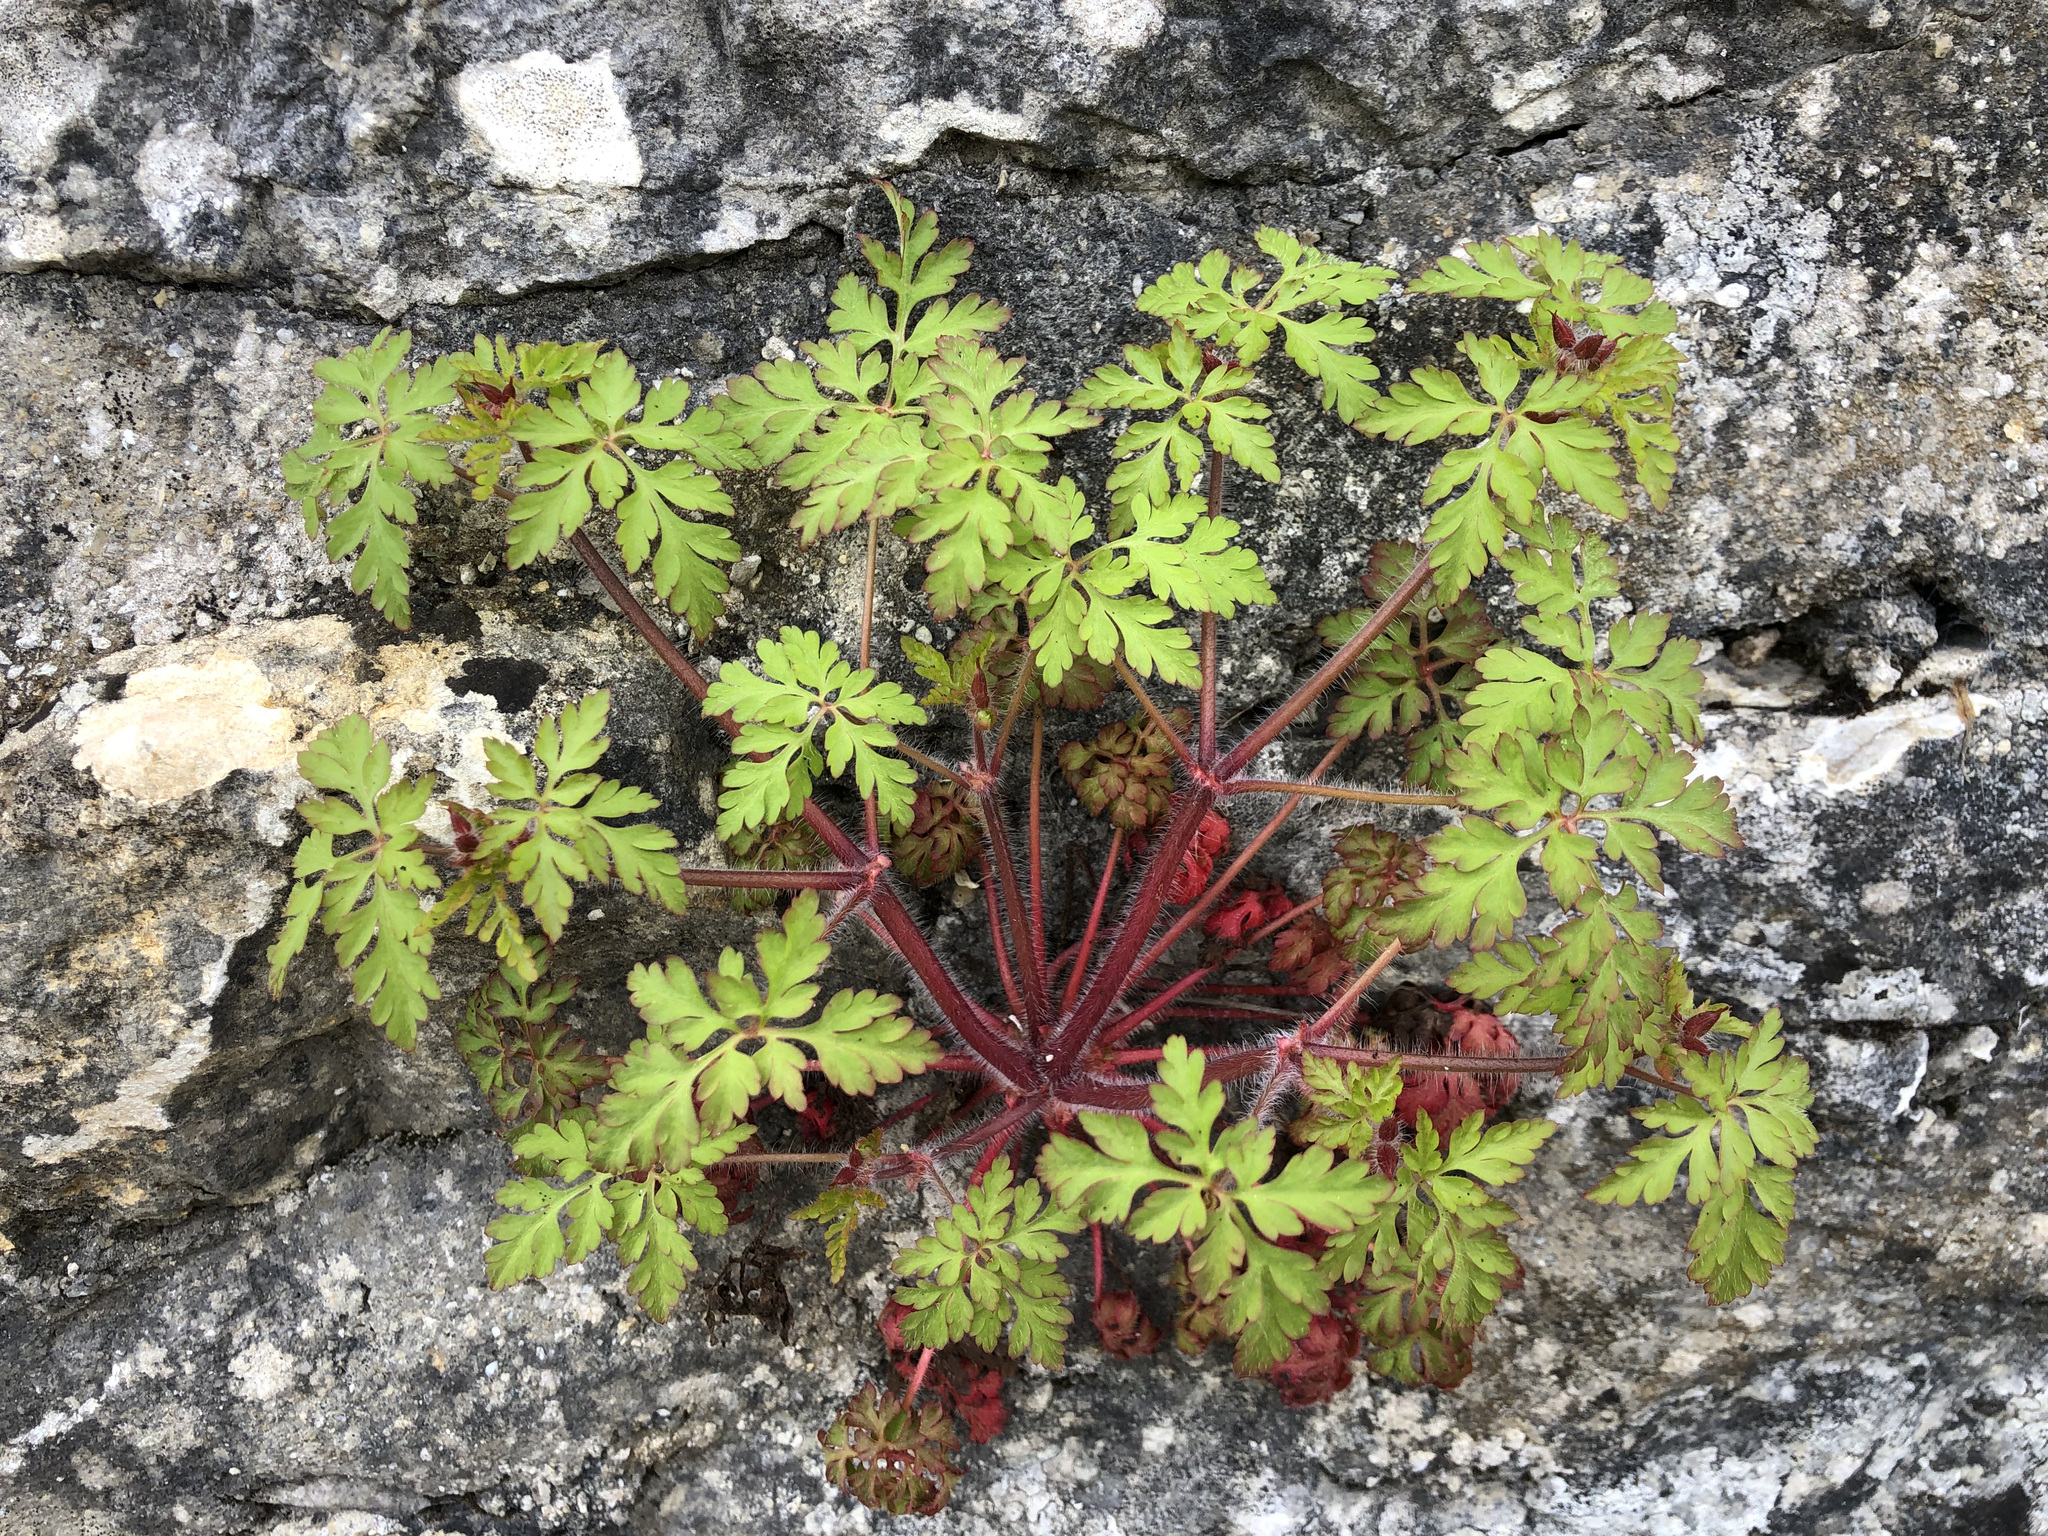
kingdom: Plantae
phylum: Tracheophyta
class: Magnoliopsida
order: Geraniales
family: Geraniaceae
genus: Geranium
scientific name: Geranium robertianum
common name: Herb-robert
